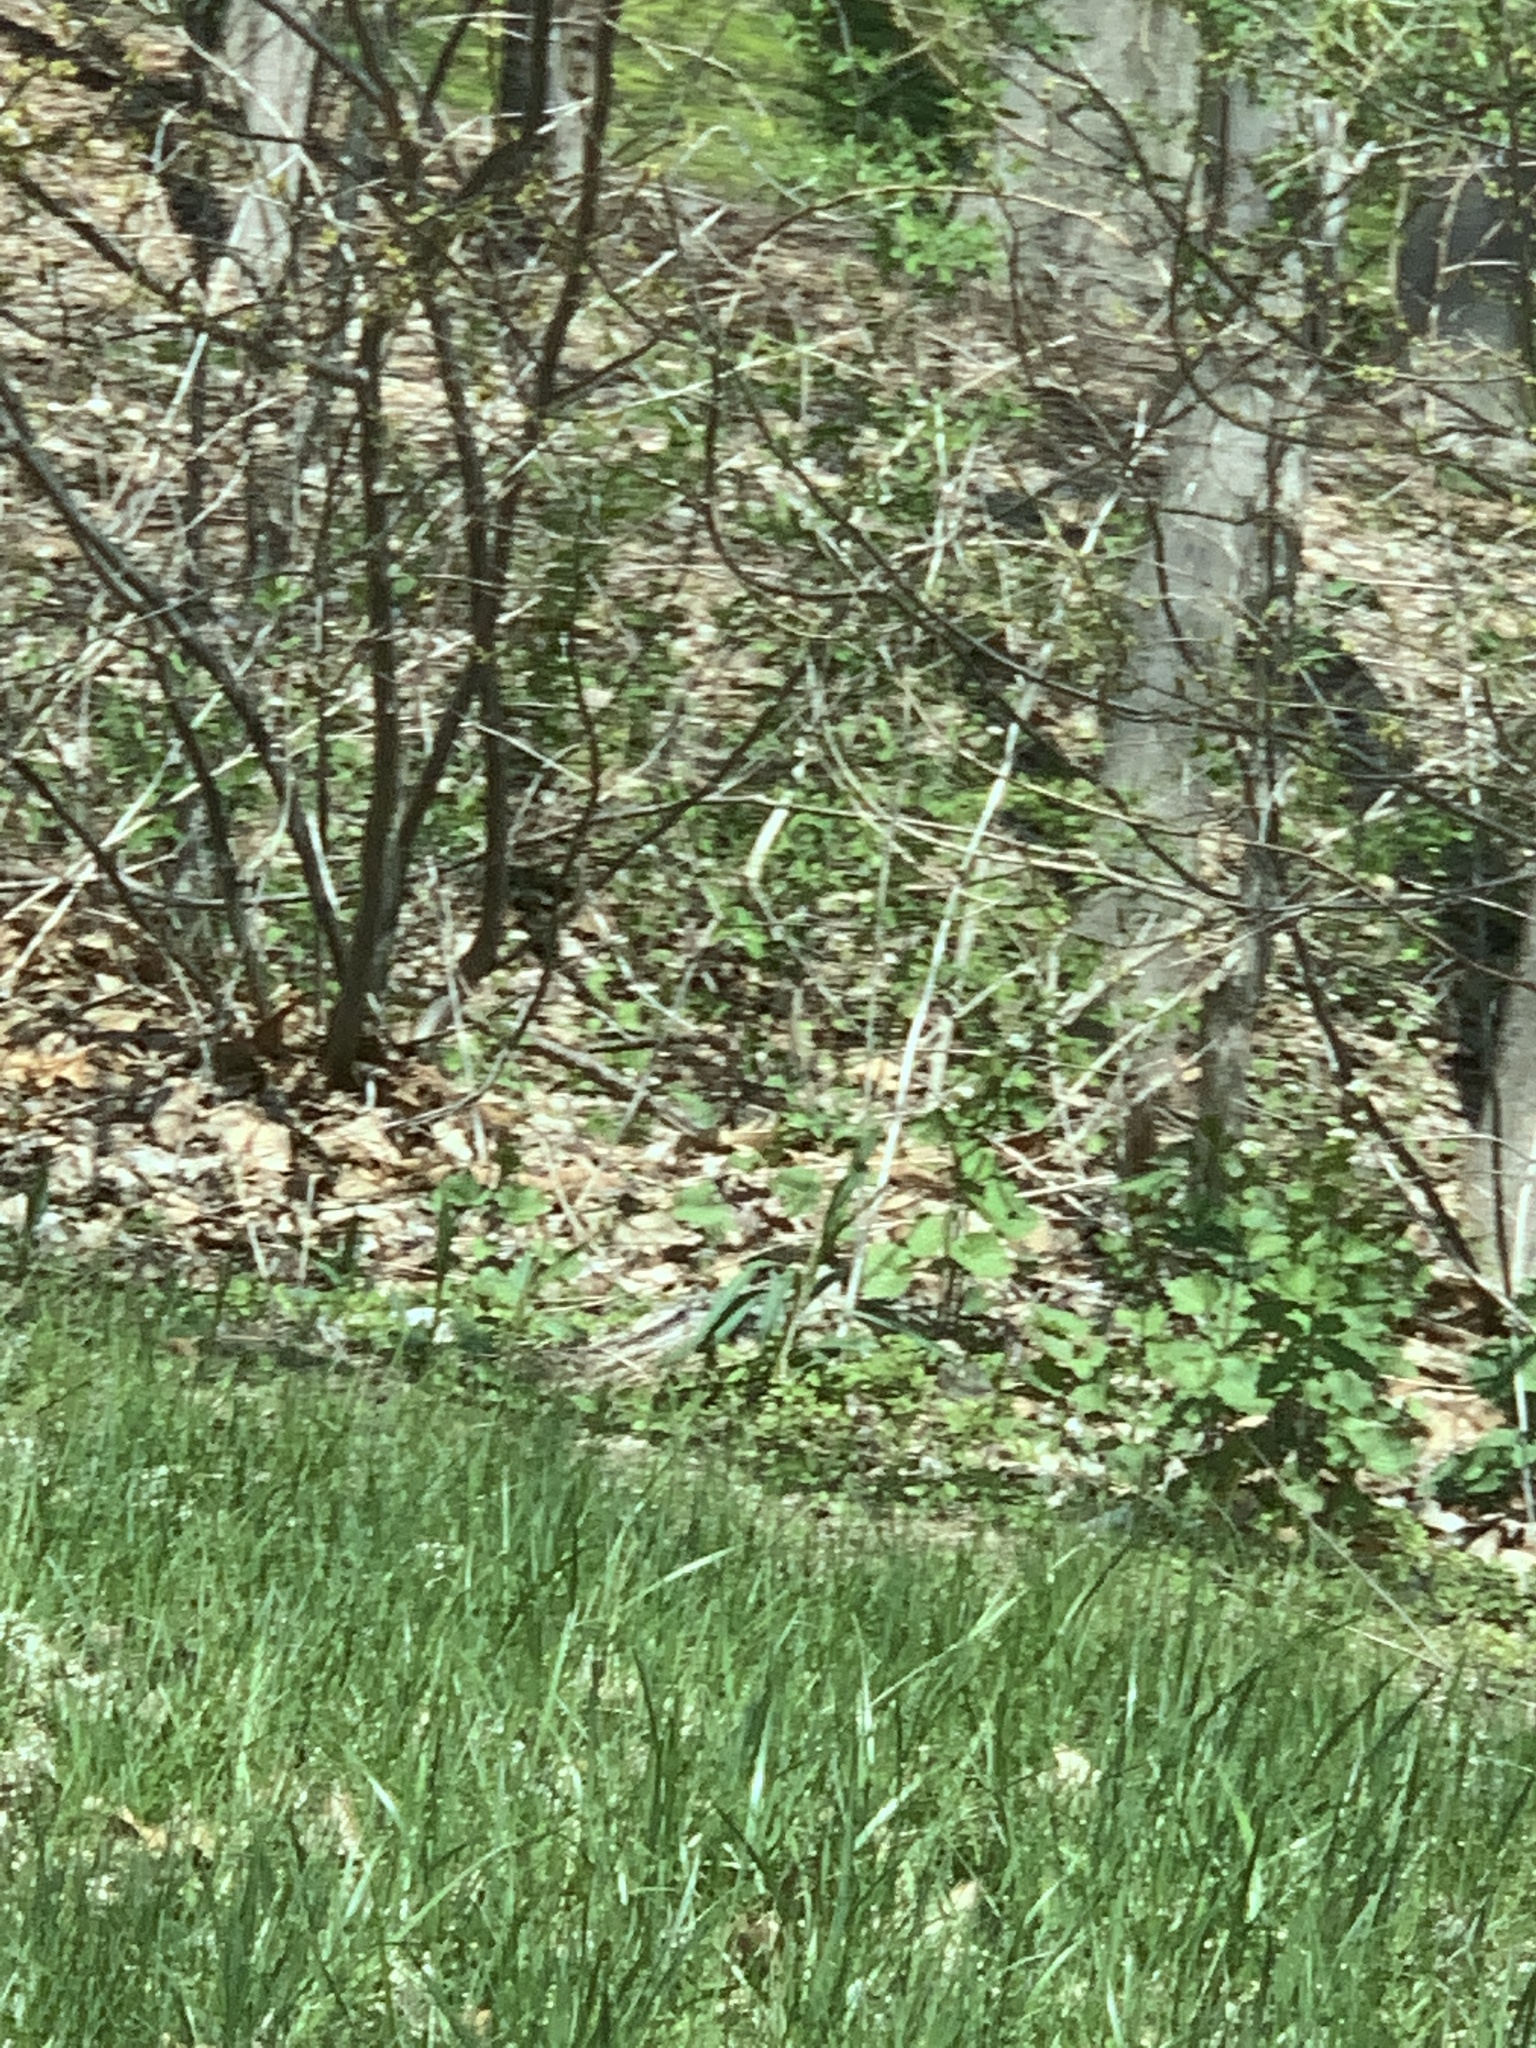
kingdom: Plantae
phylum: Tracheophyta
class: Magnoliopsida
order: Brassicales
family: Brassicaceae
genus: Alliaria
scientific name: Alliaria petiolata
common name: Garlic mustard
